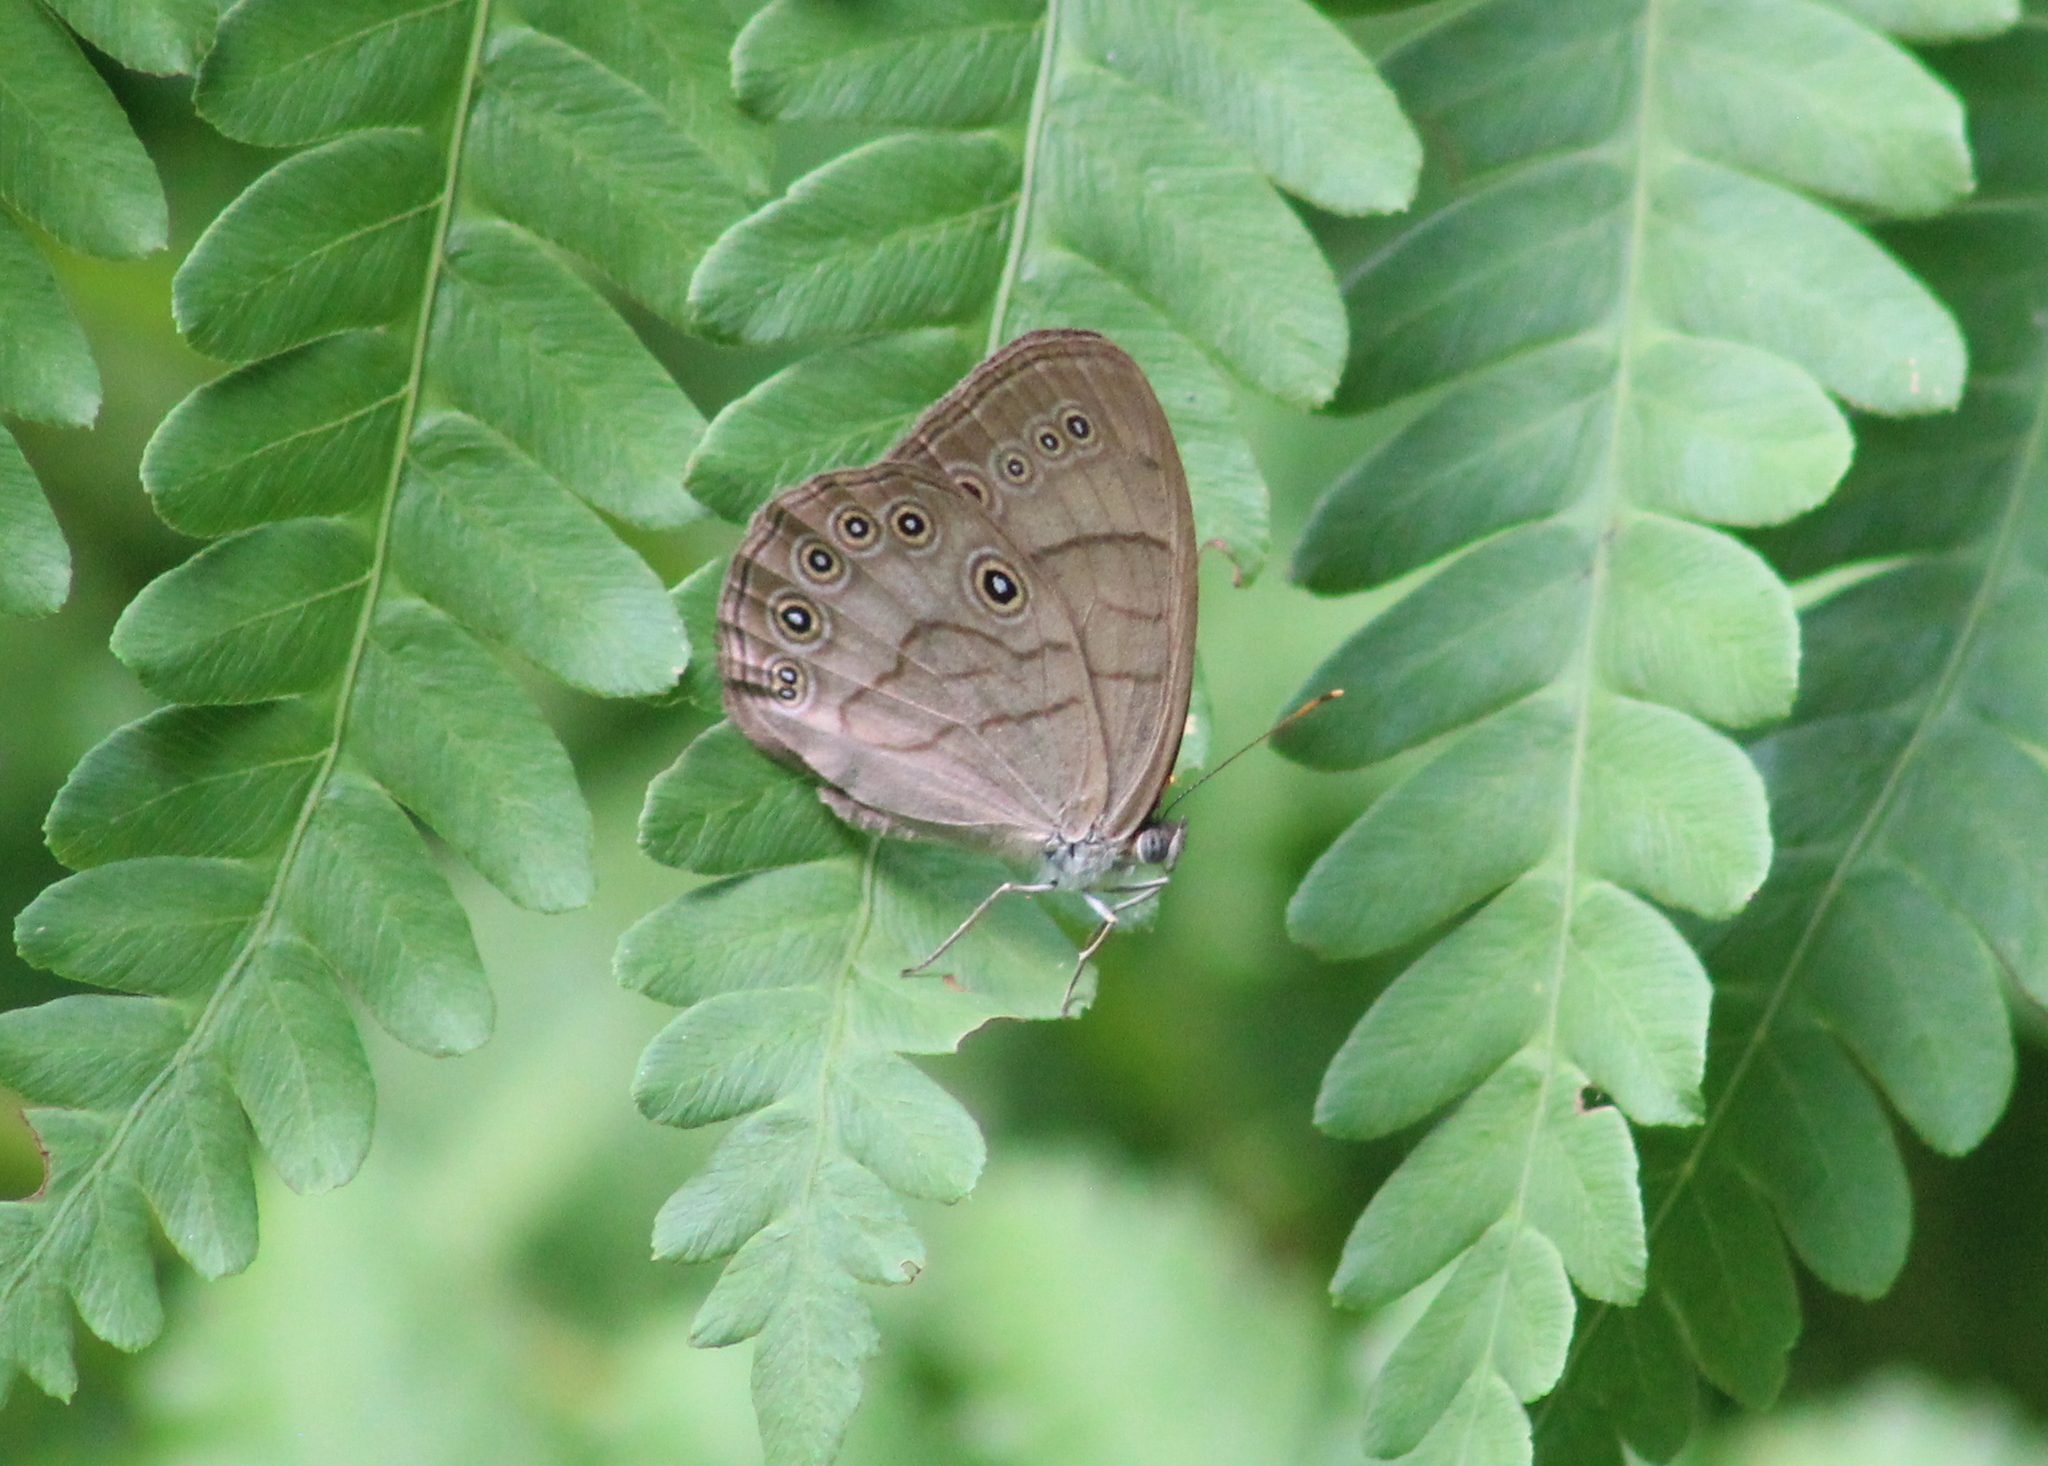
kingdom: Animalia
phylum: Arthropoda
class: Insecta
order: Lepidoptera
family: Nymphalidae
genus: Lethe
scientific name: Lethe eurydice
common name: Eyed brown
